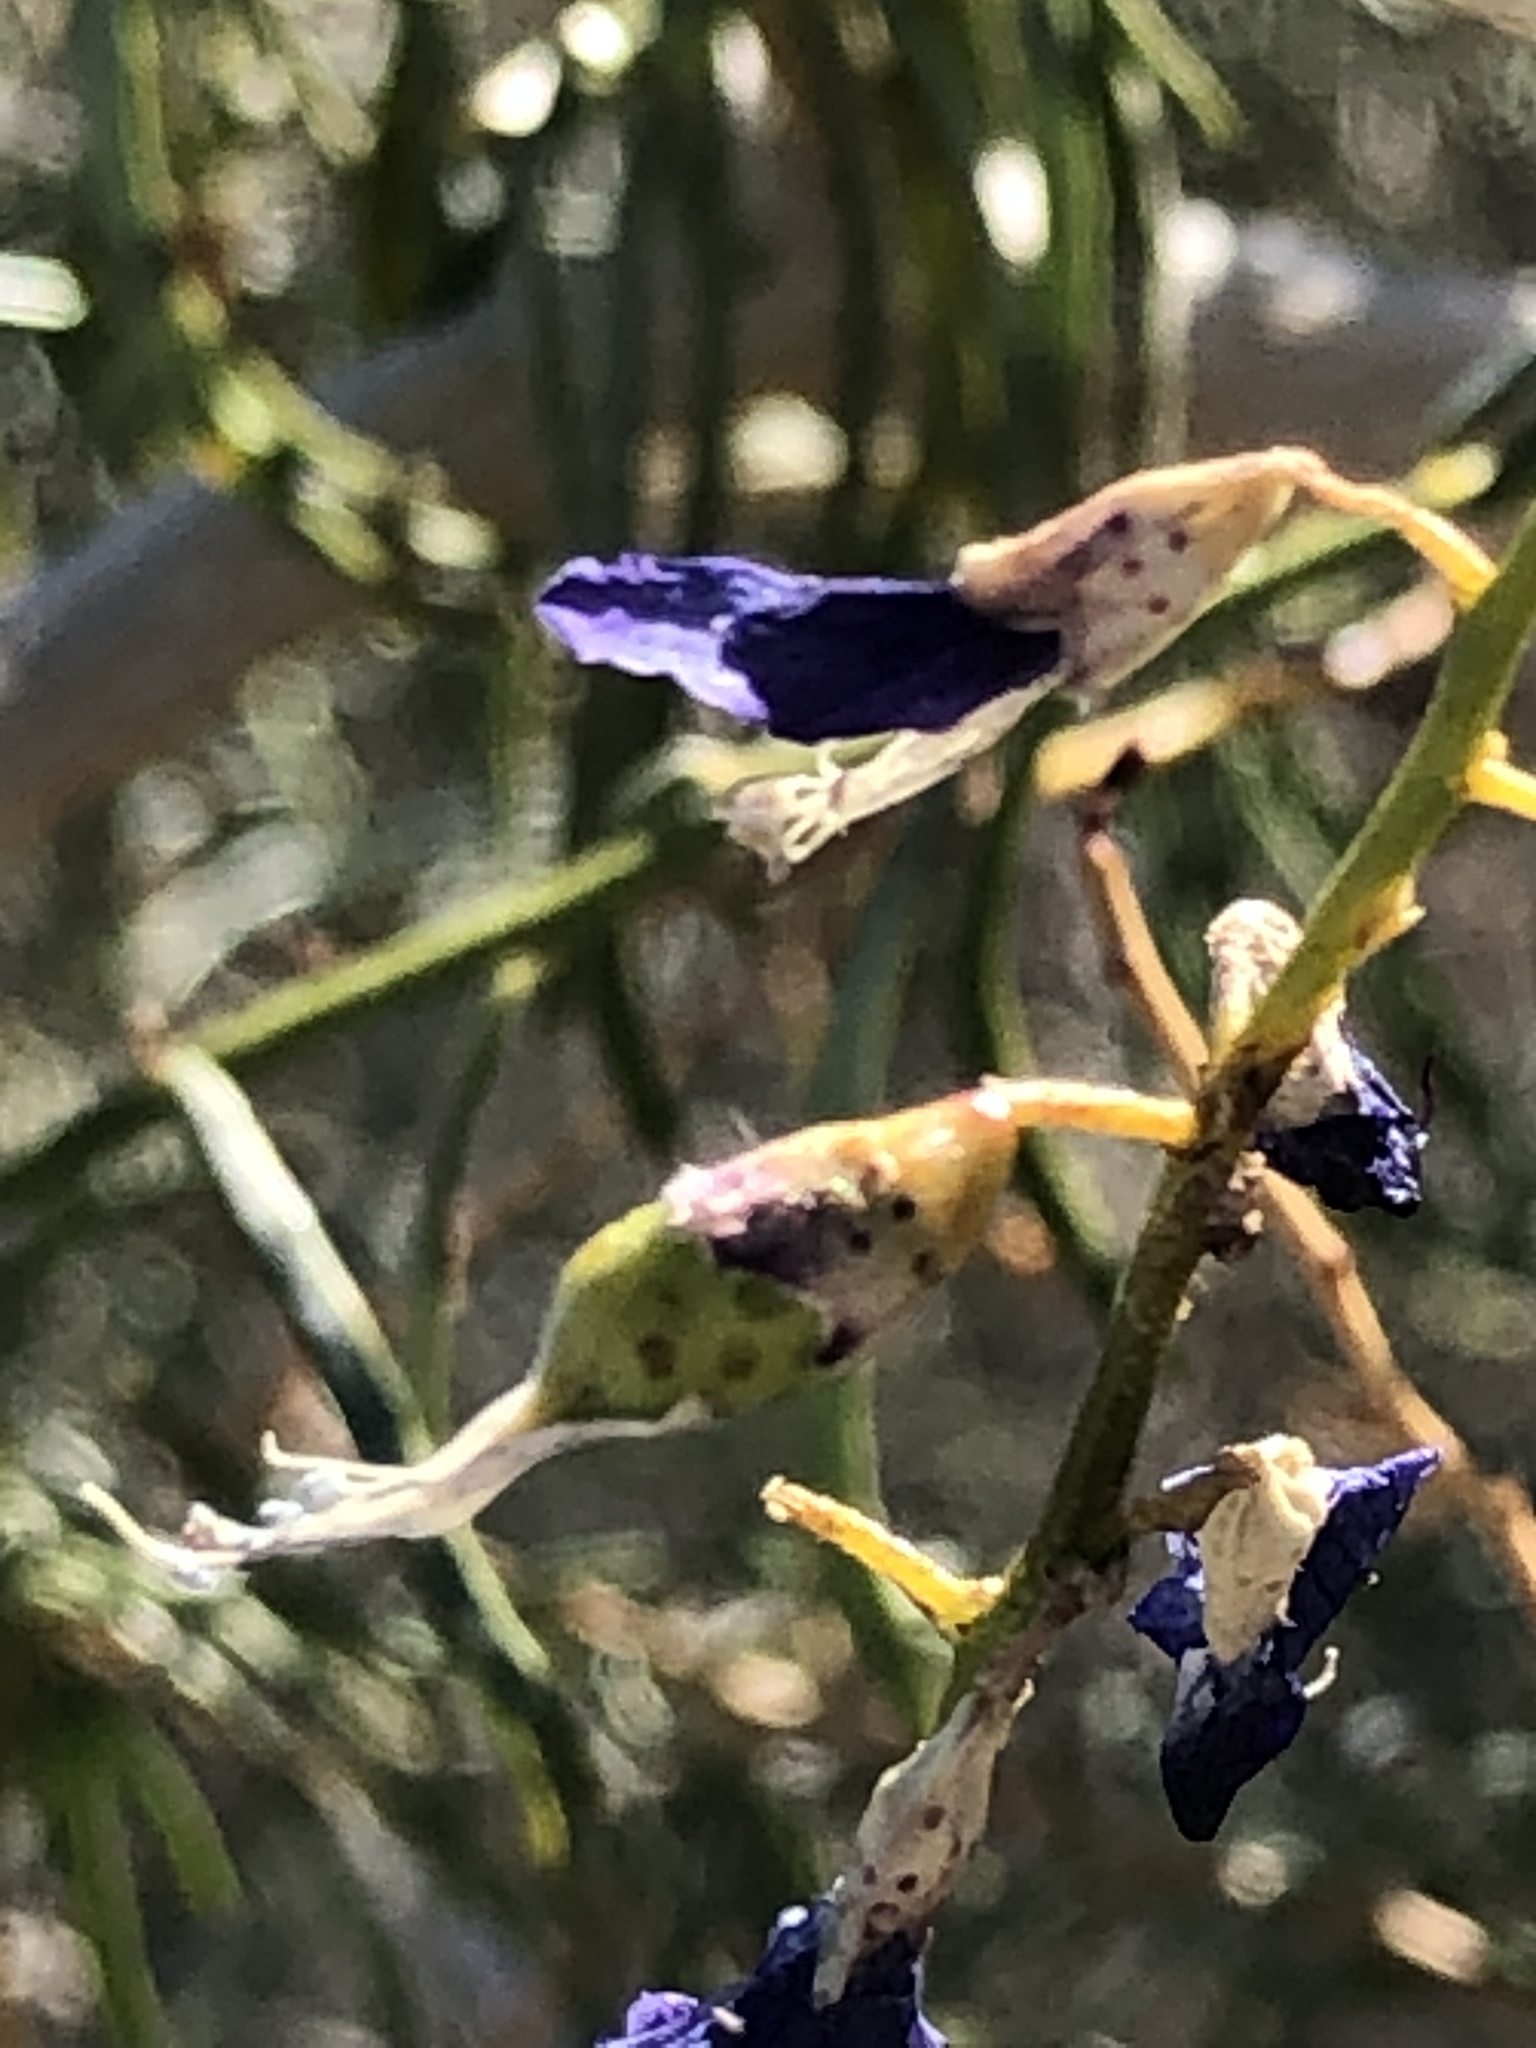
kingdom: Plantae
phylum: Tracheophyta
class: Magnoliopsida
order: Fabales
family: Fabaceae
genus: Psorothamnus
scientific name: Psorothamnus schottii
